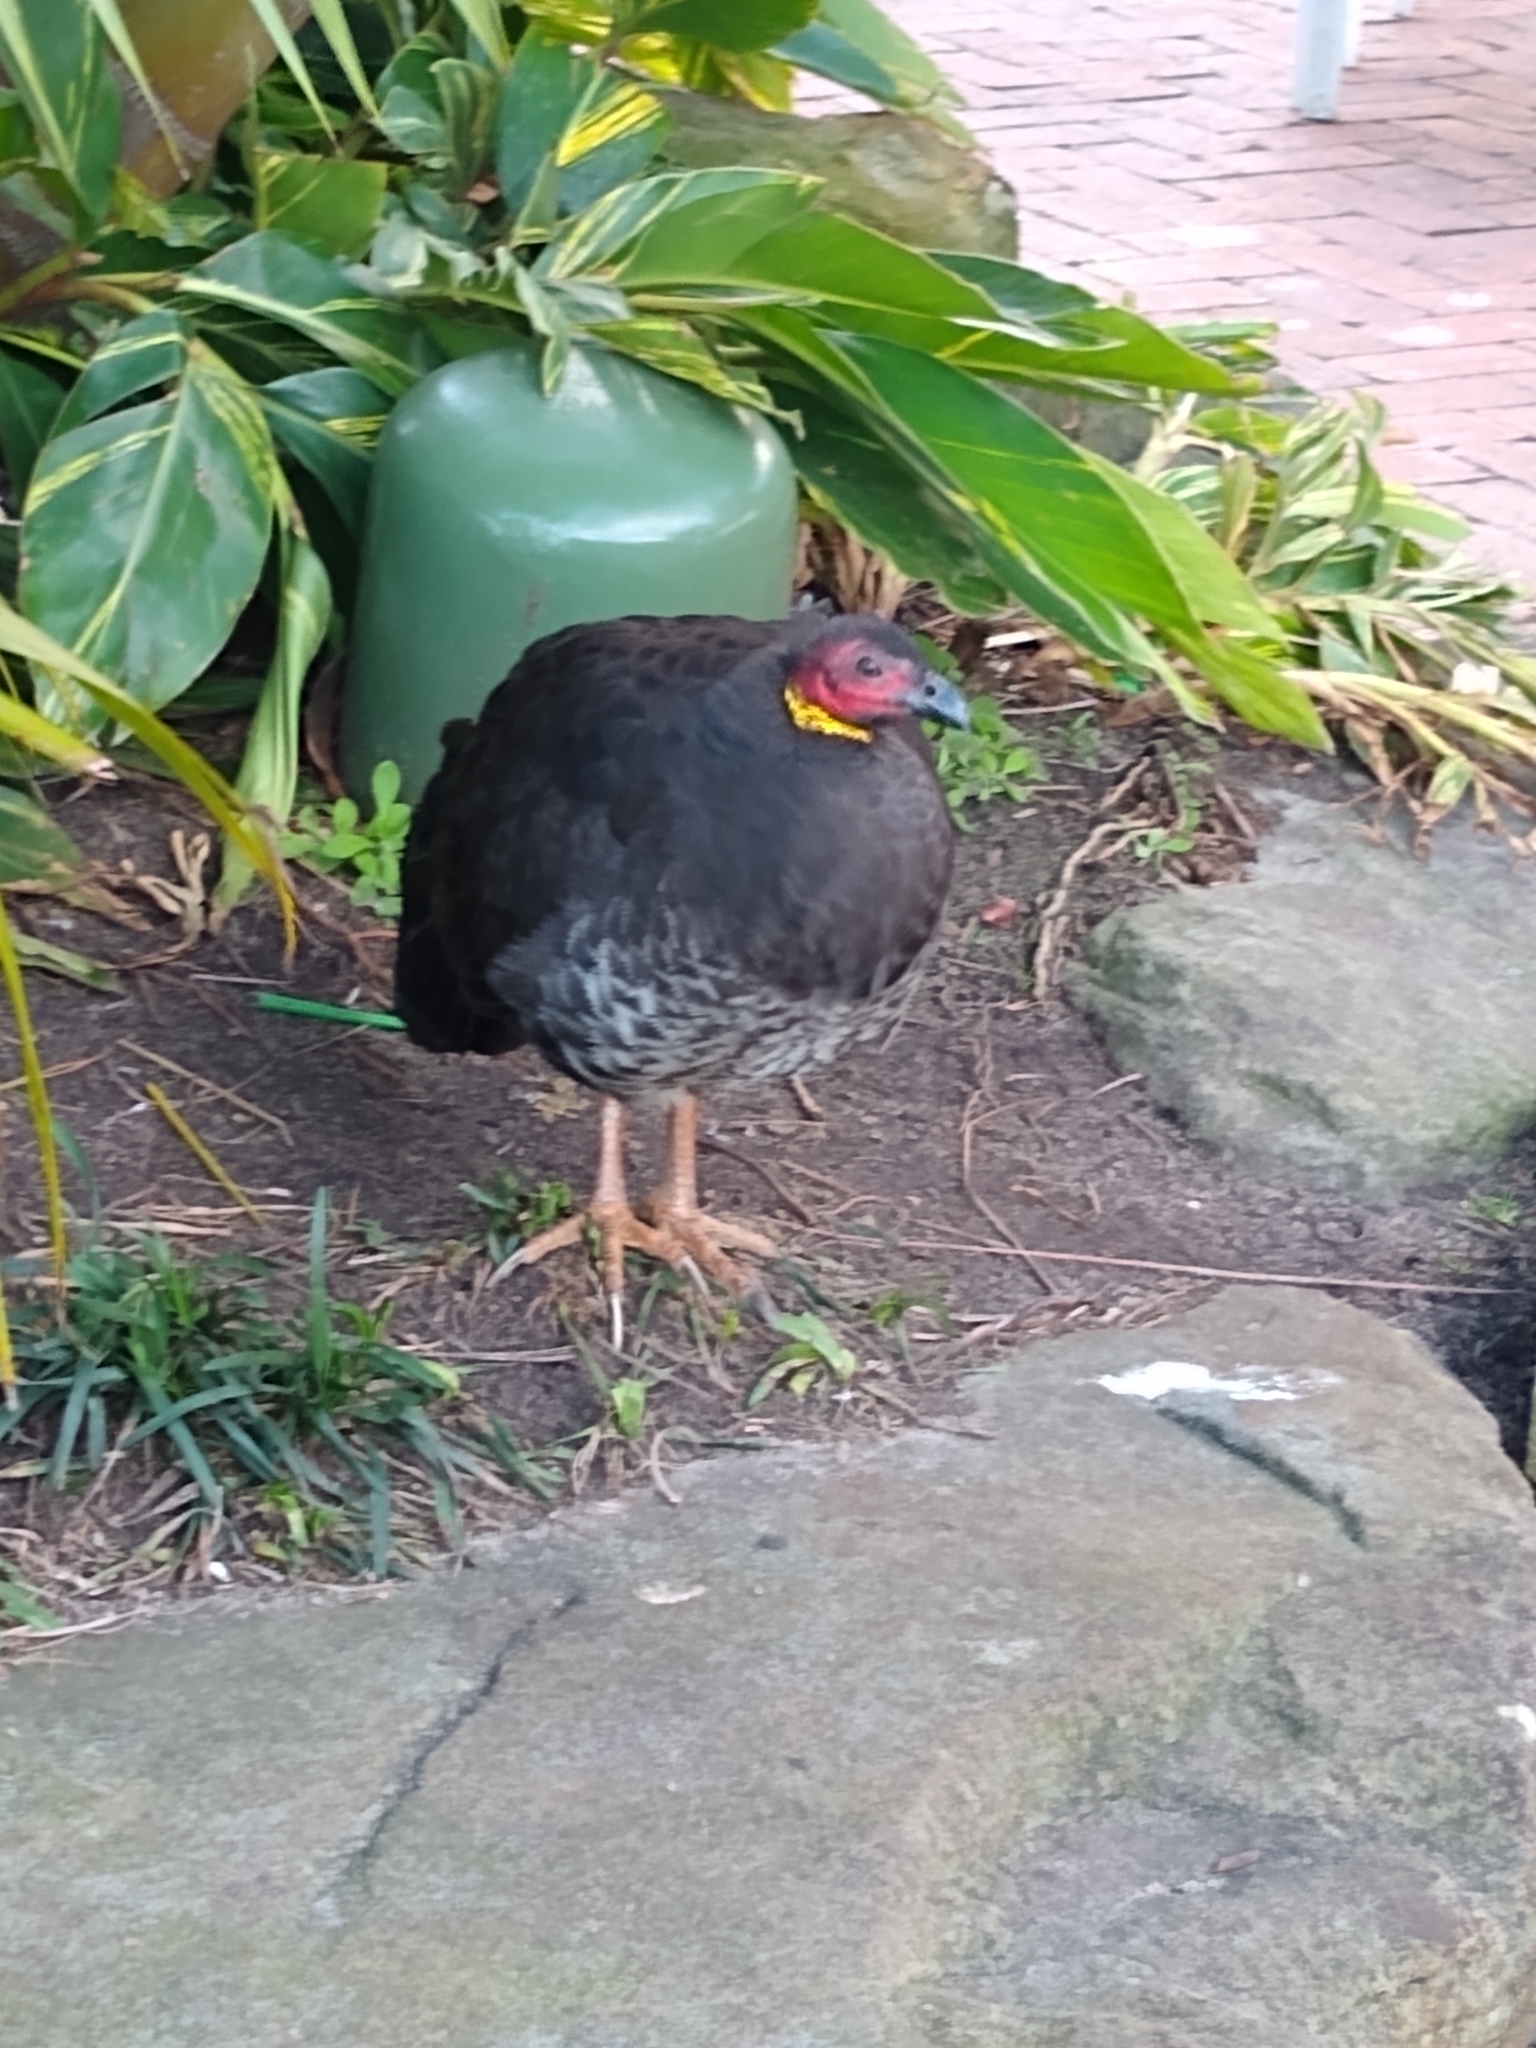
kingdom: Animalia
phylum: Chordata
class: Aves
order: Galliformes
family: Megapodiidae
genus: Alectura
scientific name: Alectura lathami
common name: Australian brushturkey
